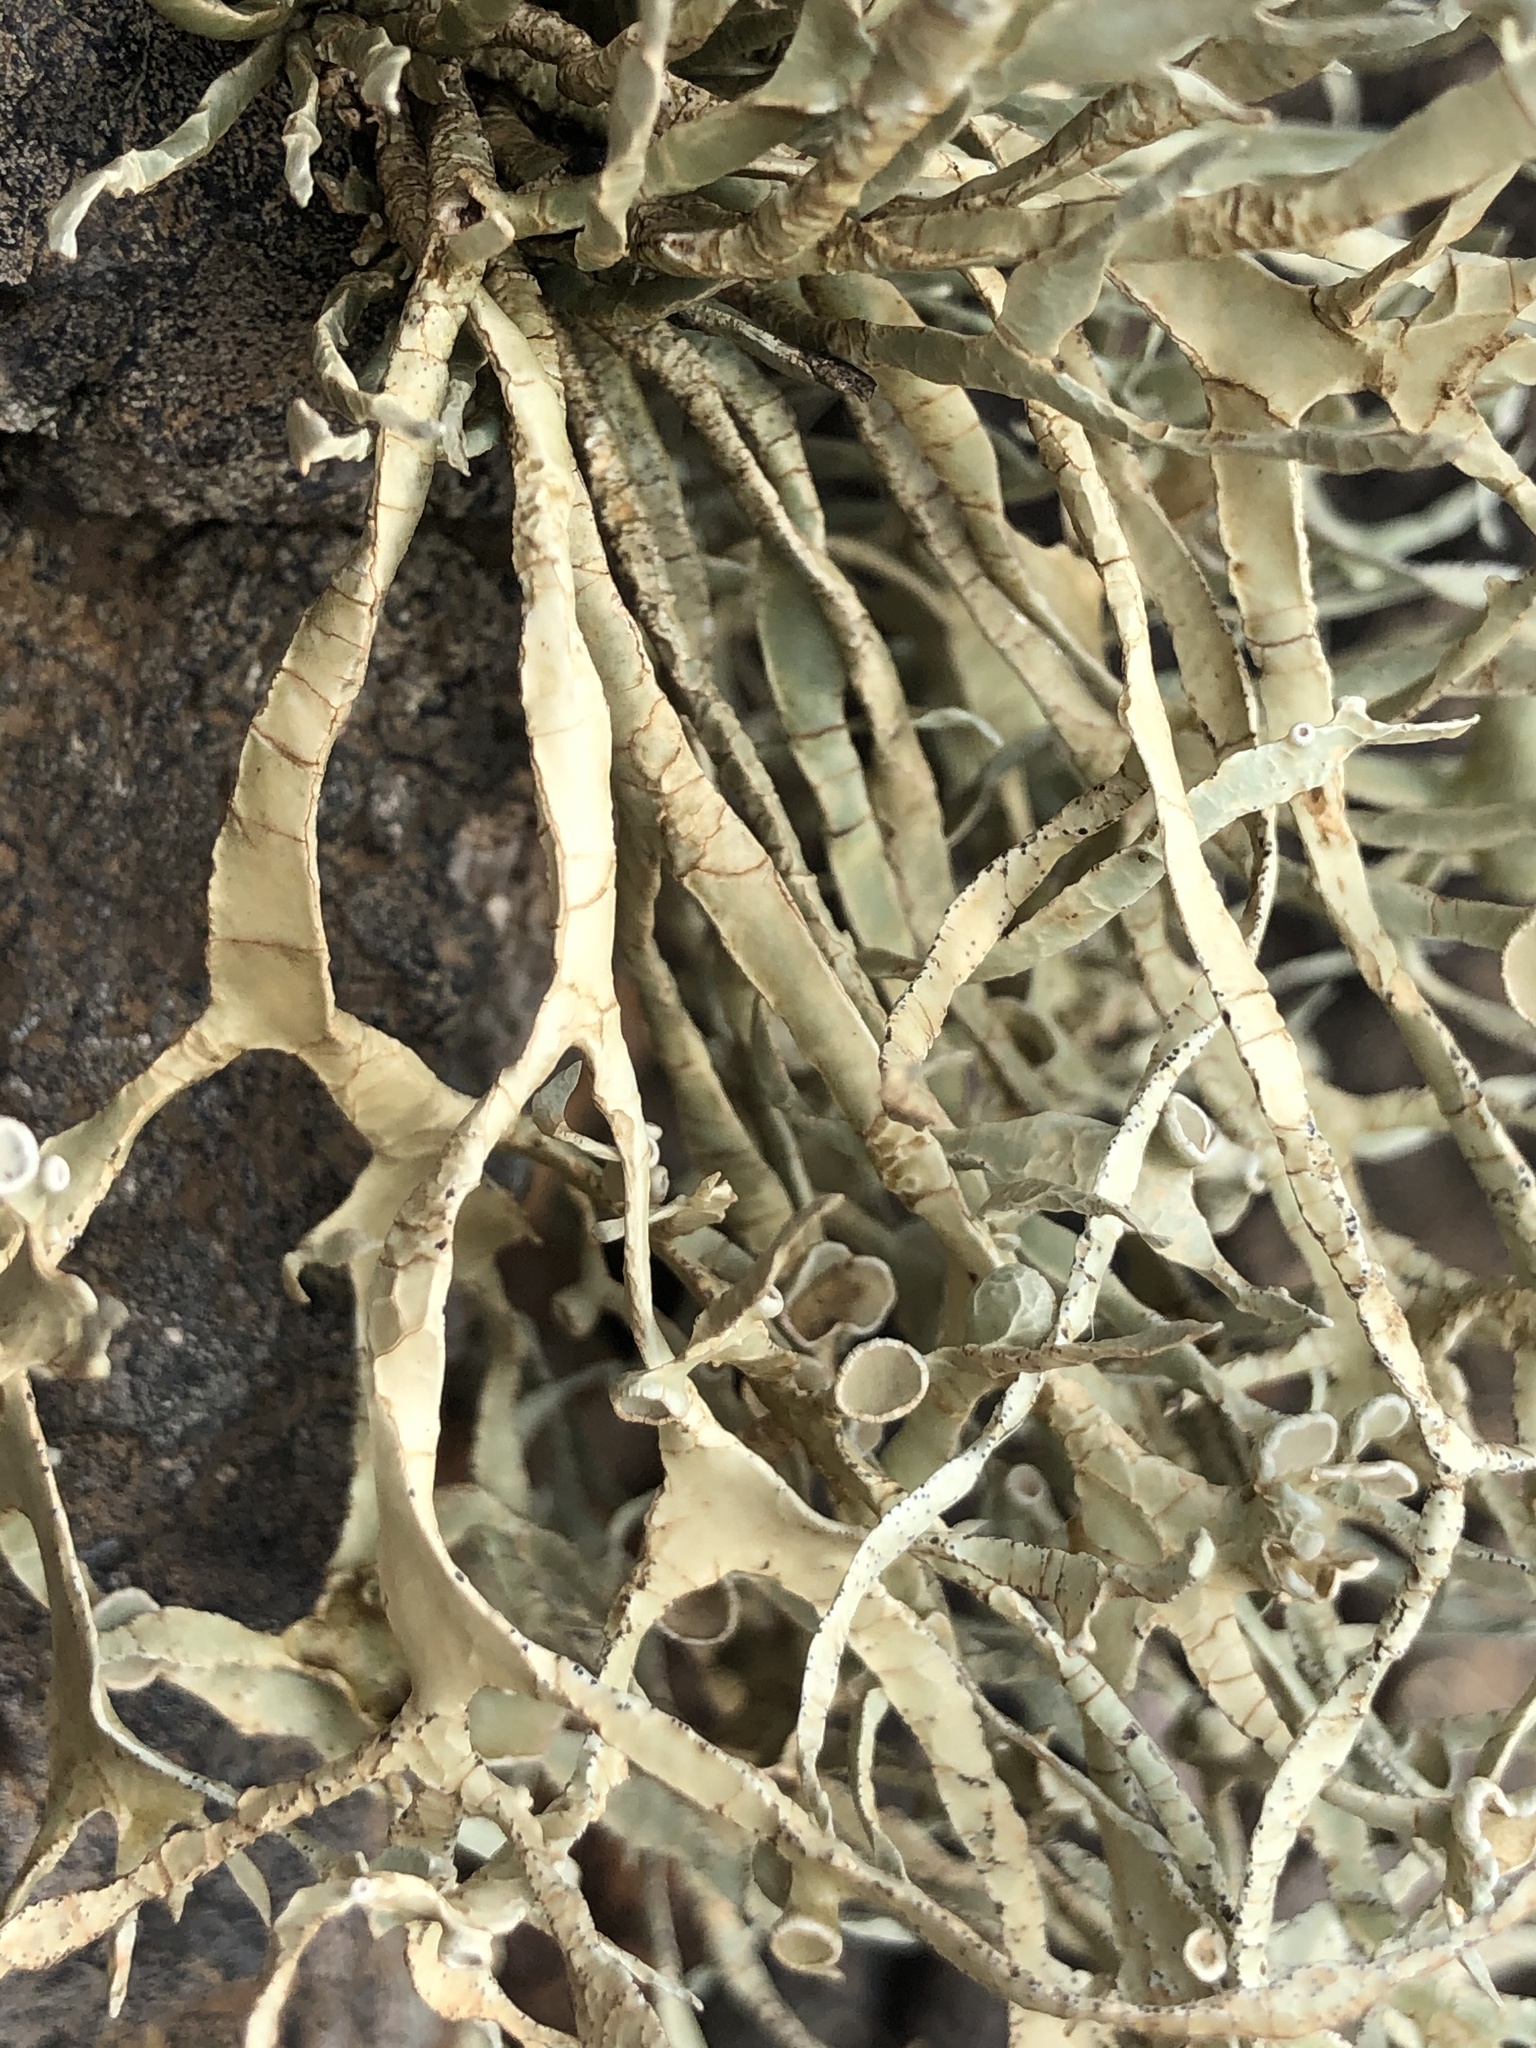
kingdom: Fungi
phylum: Ascomycota
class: Lecanoromycetes
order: Lecanorales
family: Ramalinaceae
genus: Niebla
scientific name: Niebla homalea
